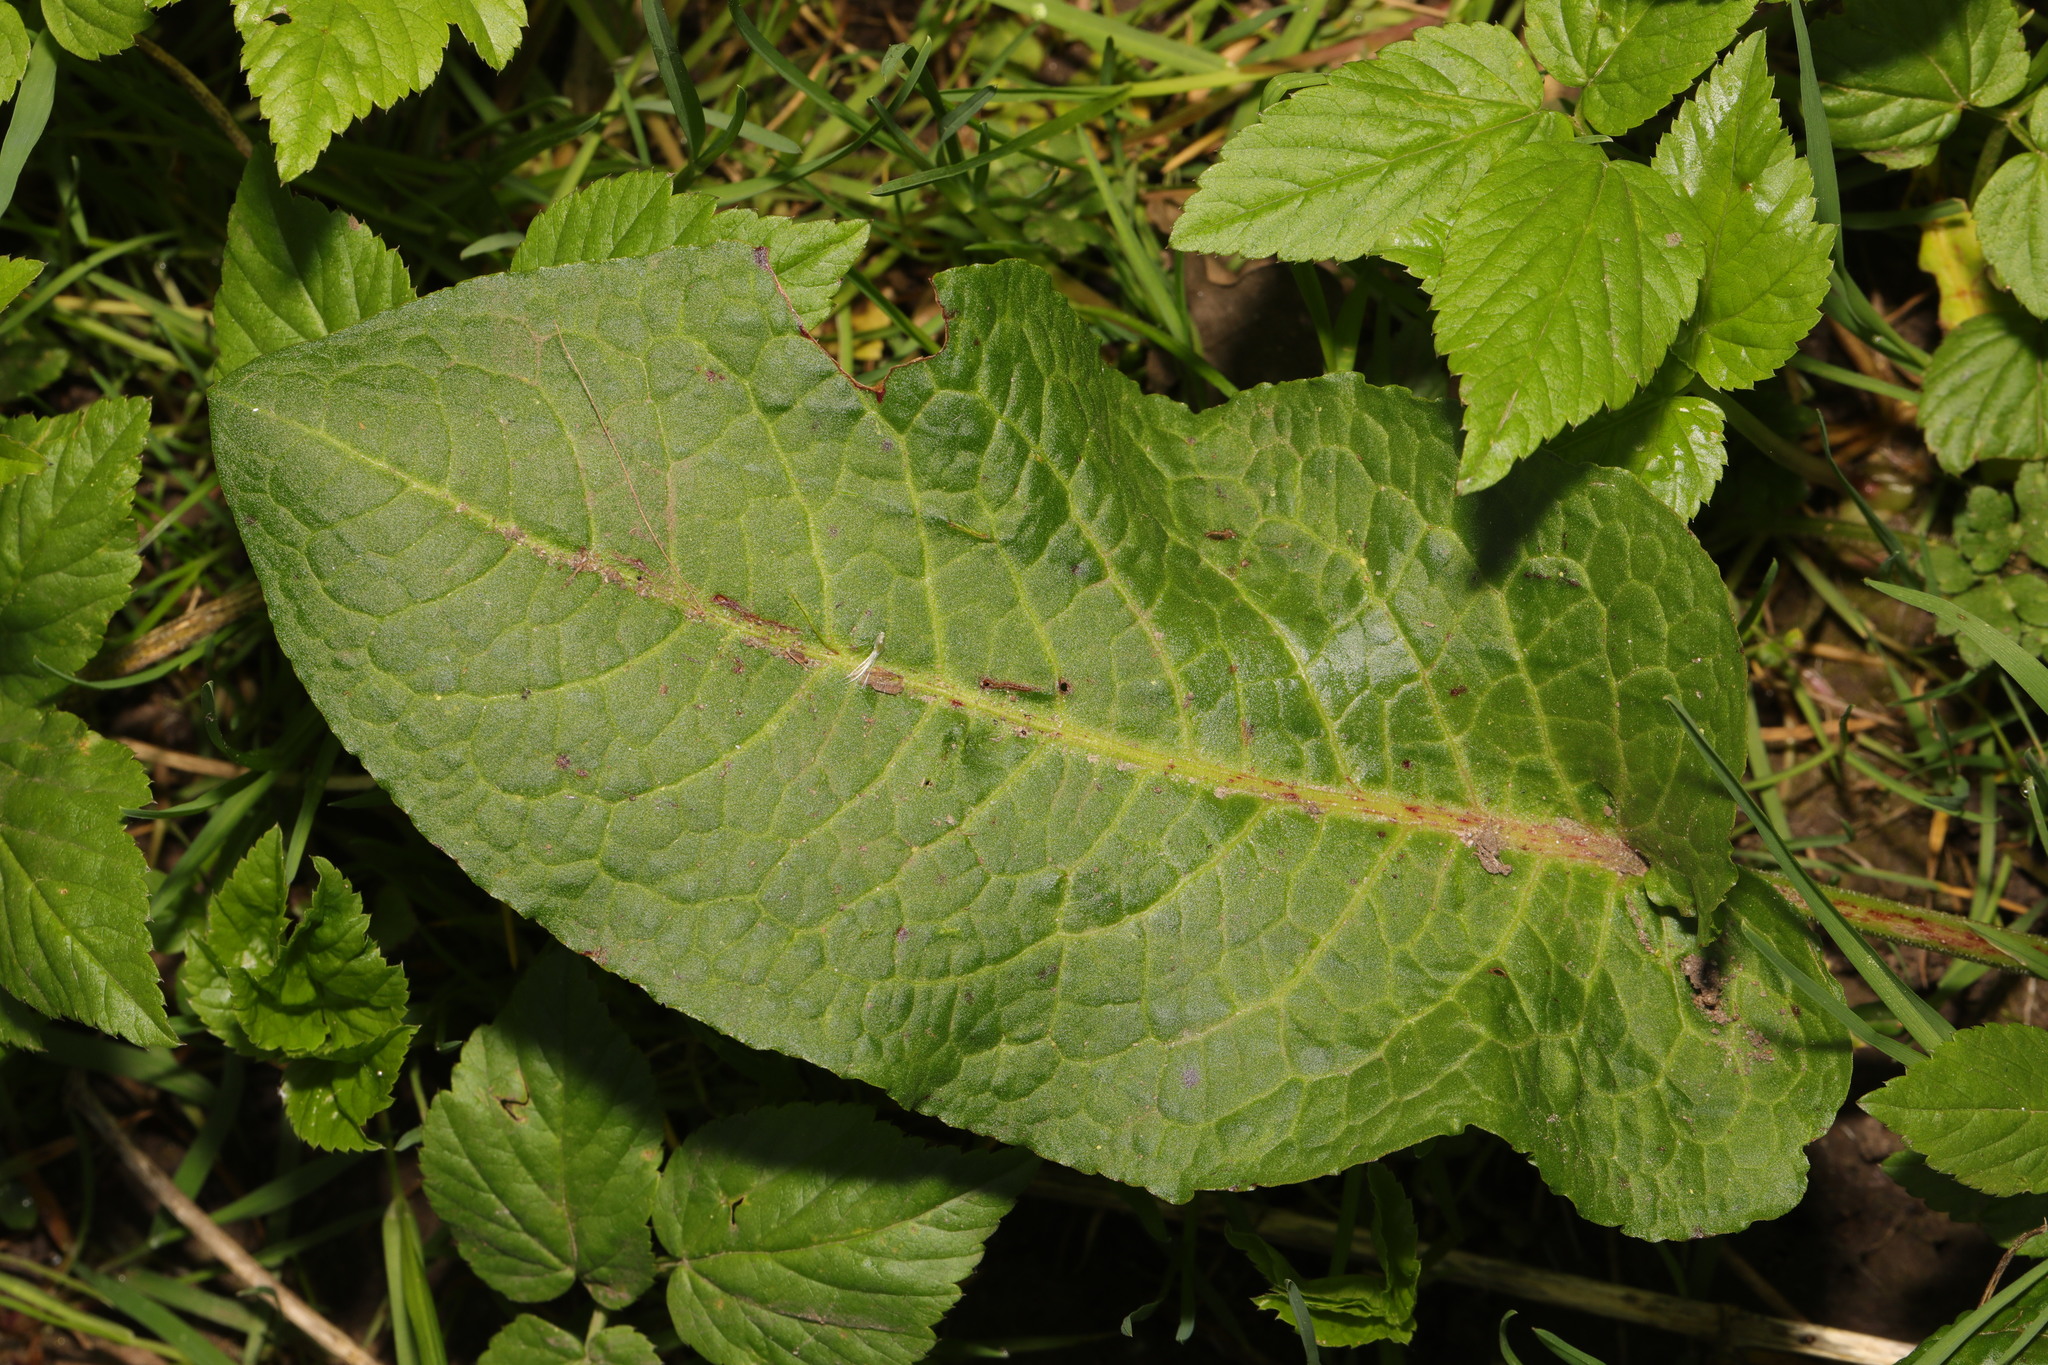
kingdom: Plantae
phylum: Tracheophyta
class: Magnoliopsida
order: Caryophyllales
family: Polygonaceae
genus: Rumex
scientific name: Rumex obtusifolius
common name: Bitter dock
